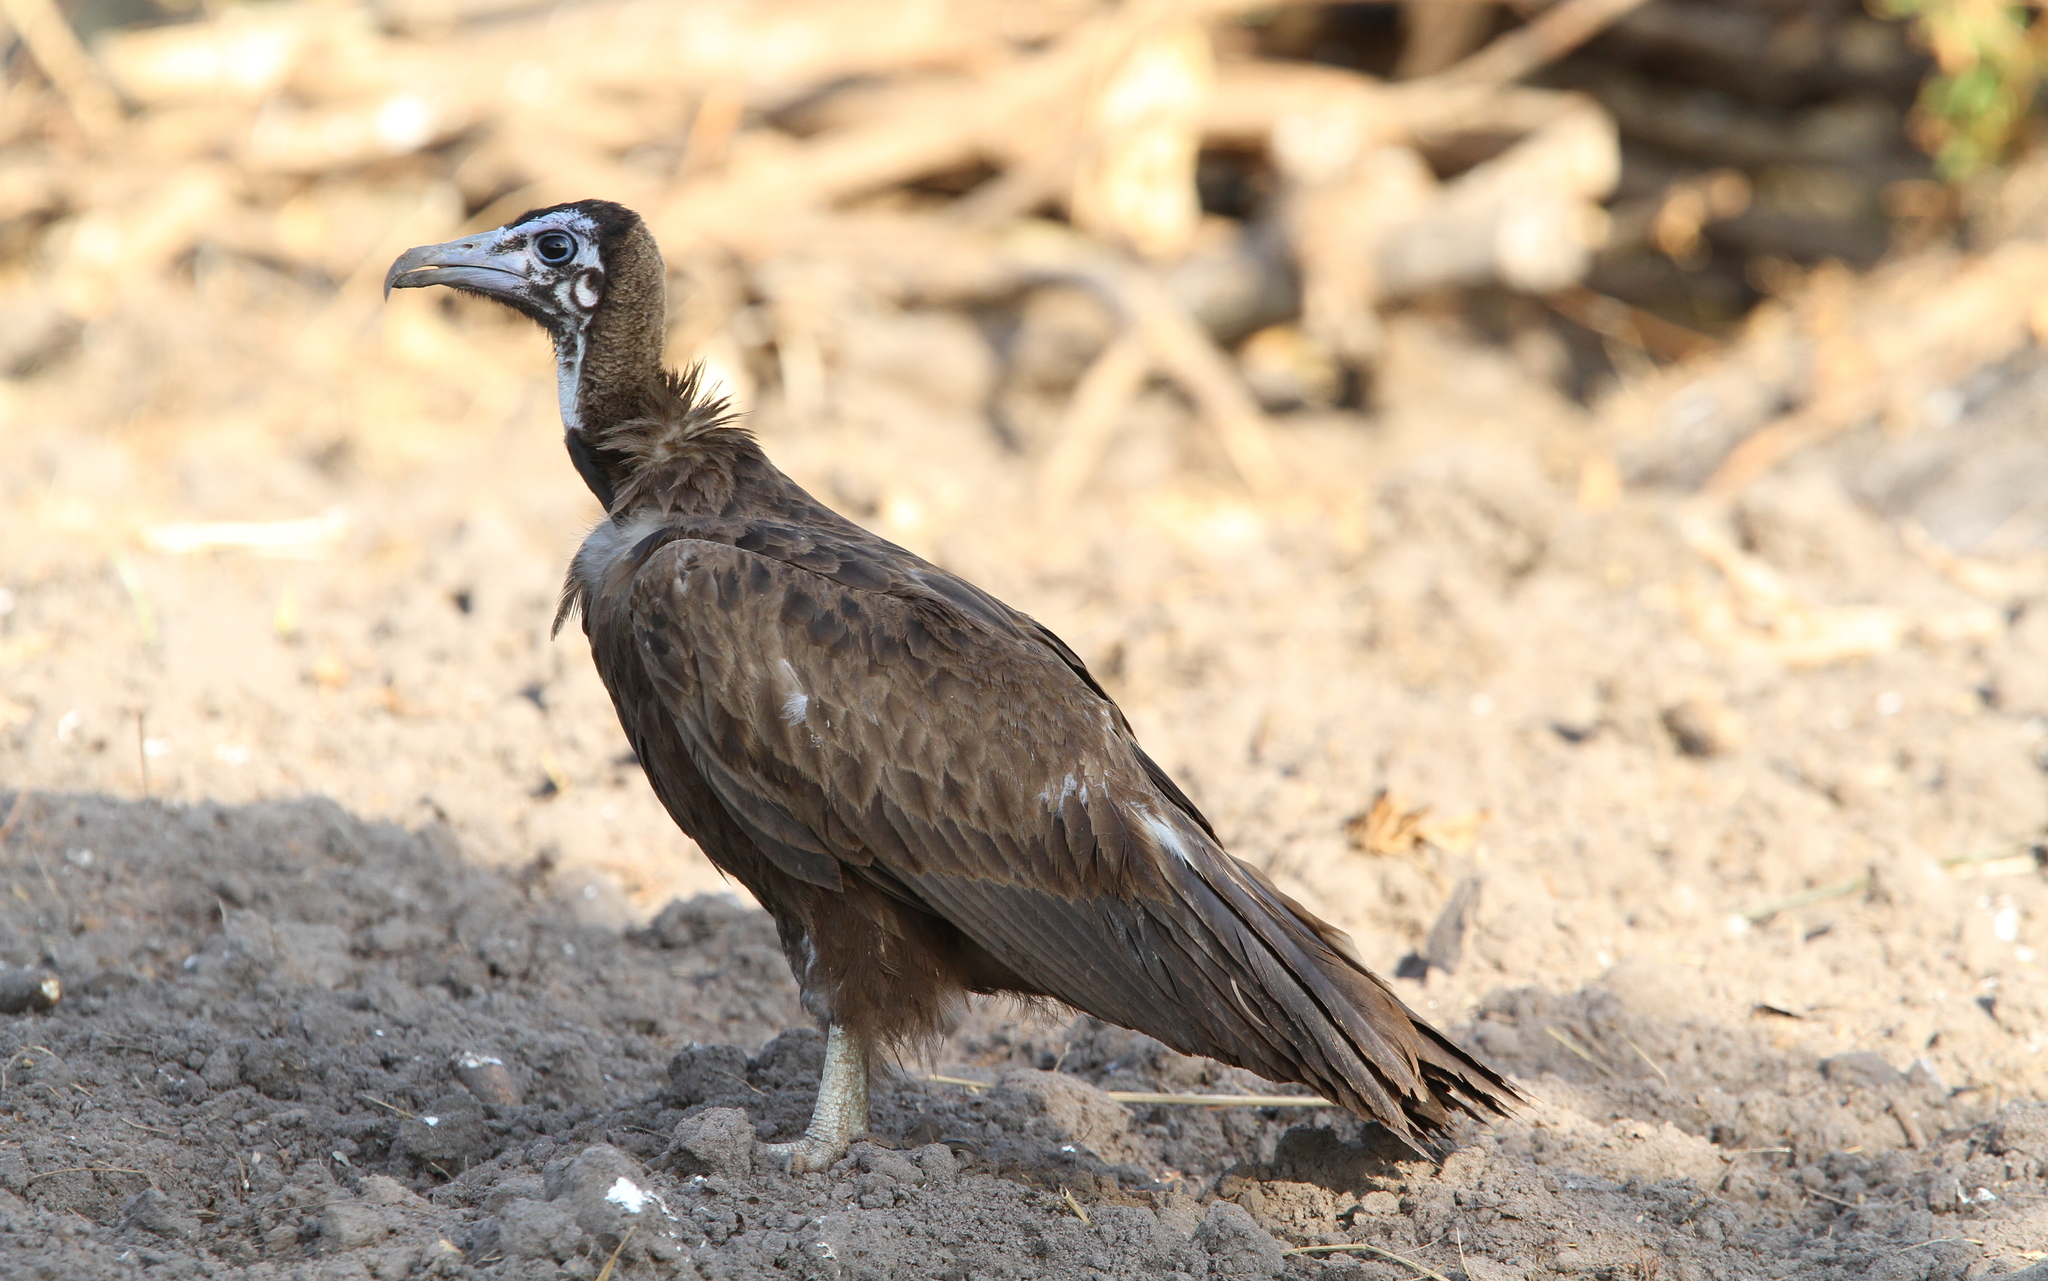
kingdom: Animalia
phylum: Chordata
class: Aves
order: Accipitriformes
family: Accipitridae
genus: Necrosyrtes
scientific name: Necrosyrtes monachus
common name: Hooded vulture
